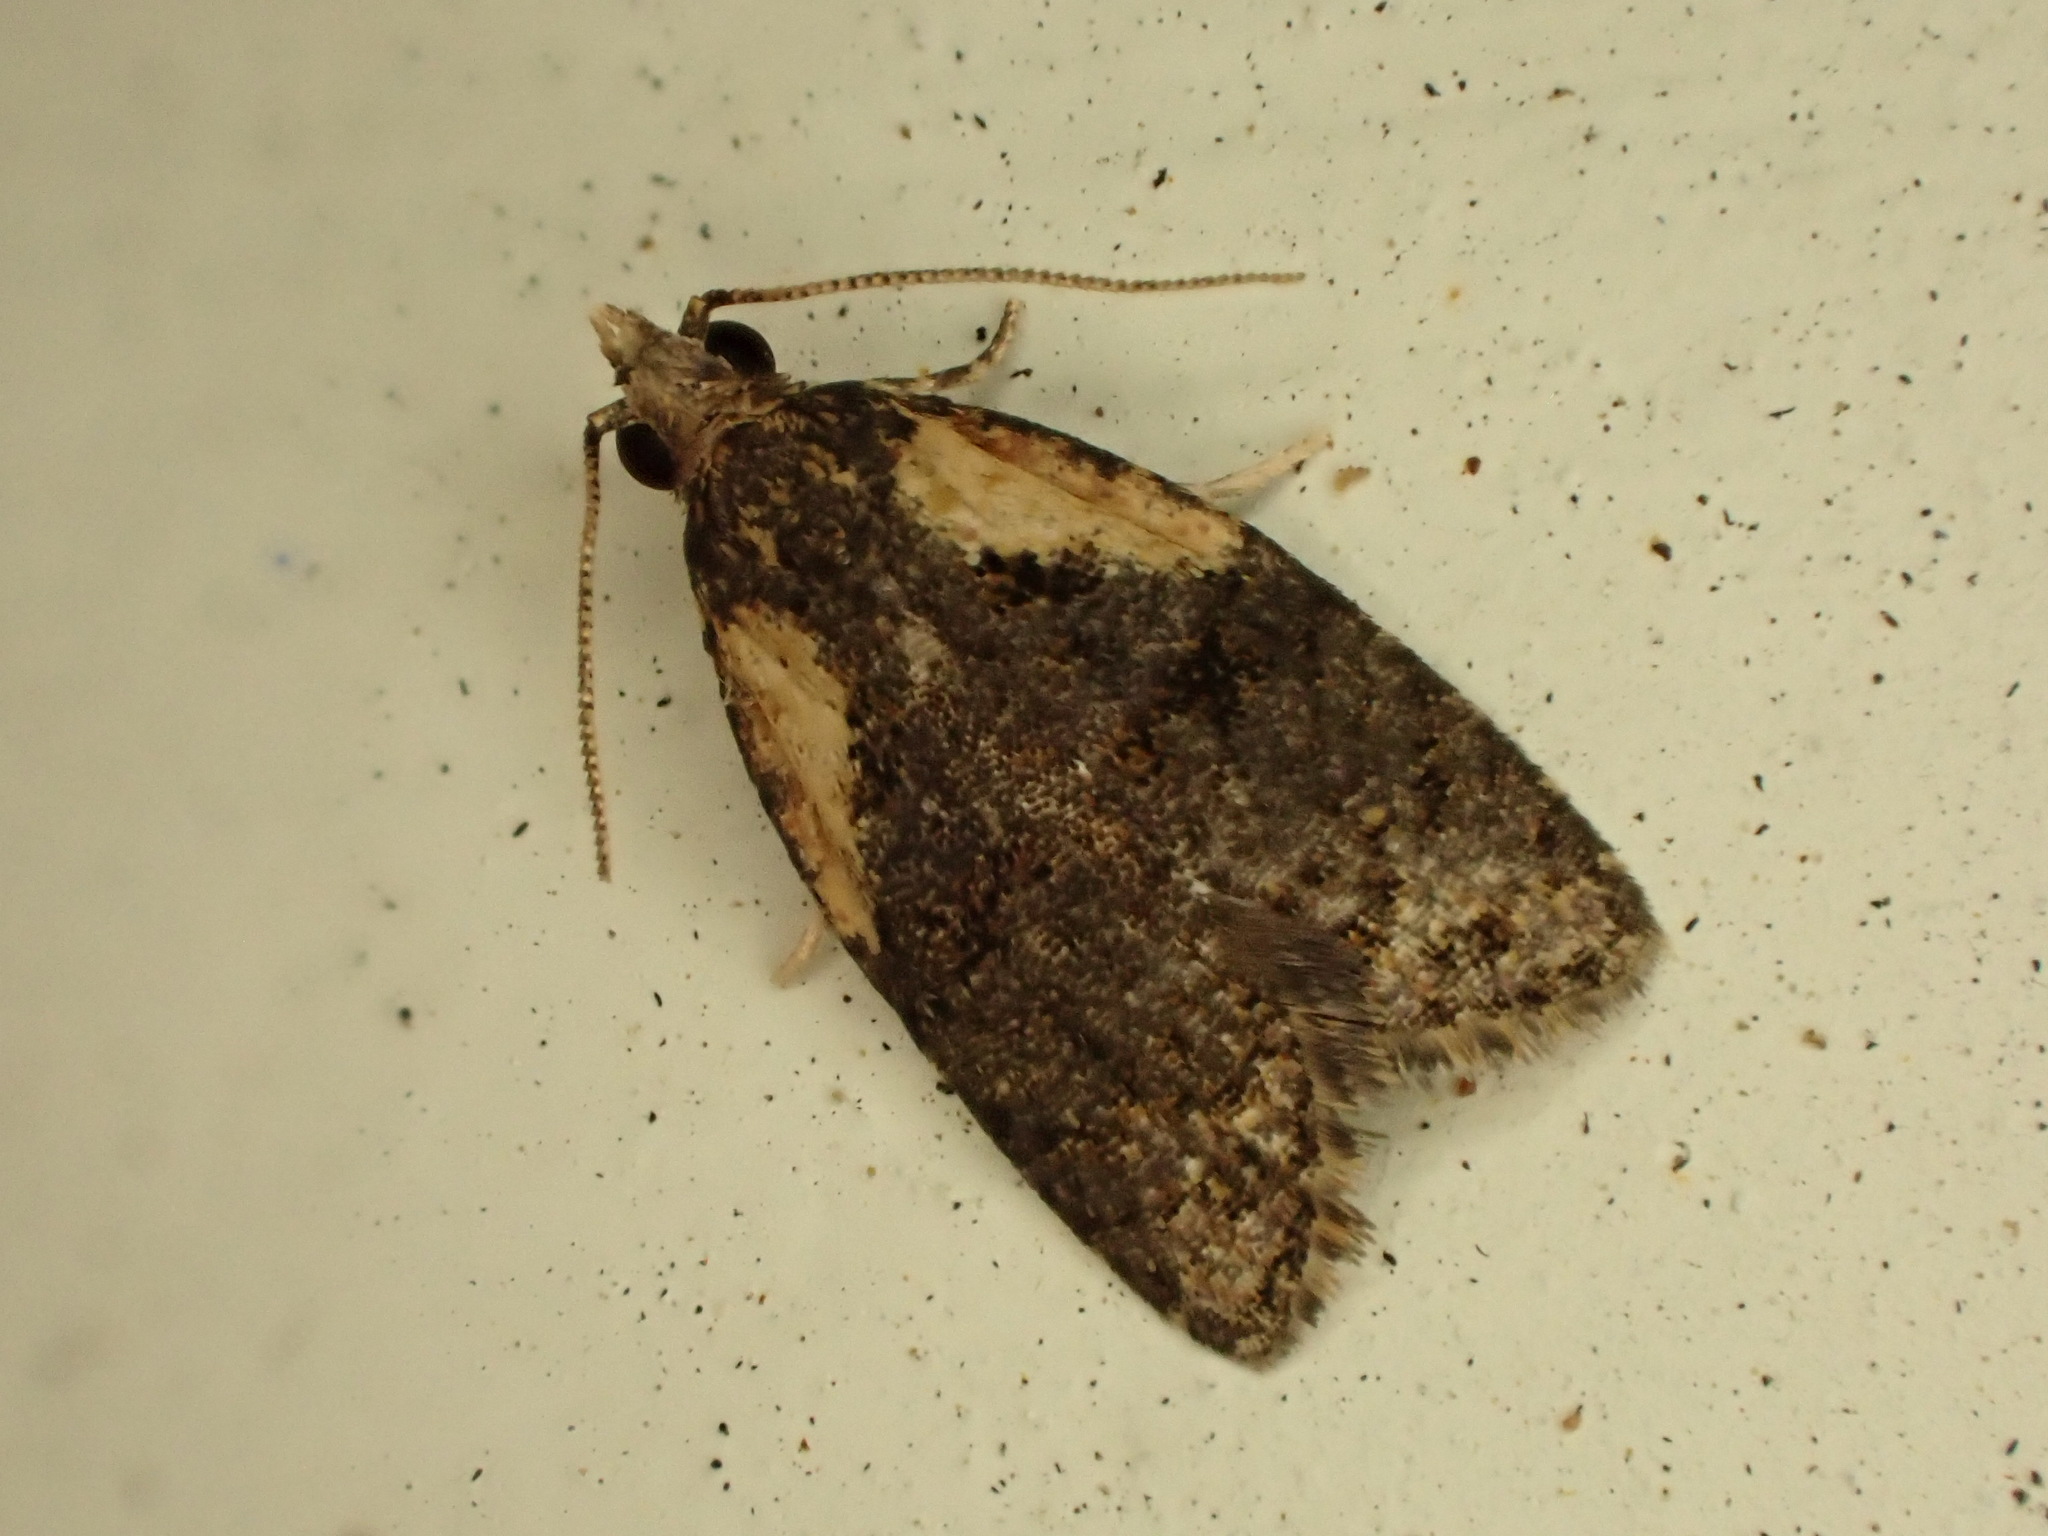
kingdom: Animalia
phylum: Arthropoda
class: Insecta
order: Lepidoptera
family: Tortricidae
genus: Capua
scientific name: Capua intractana
